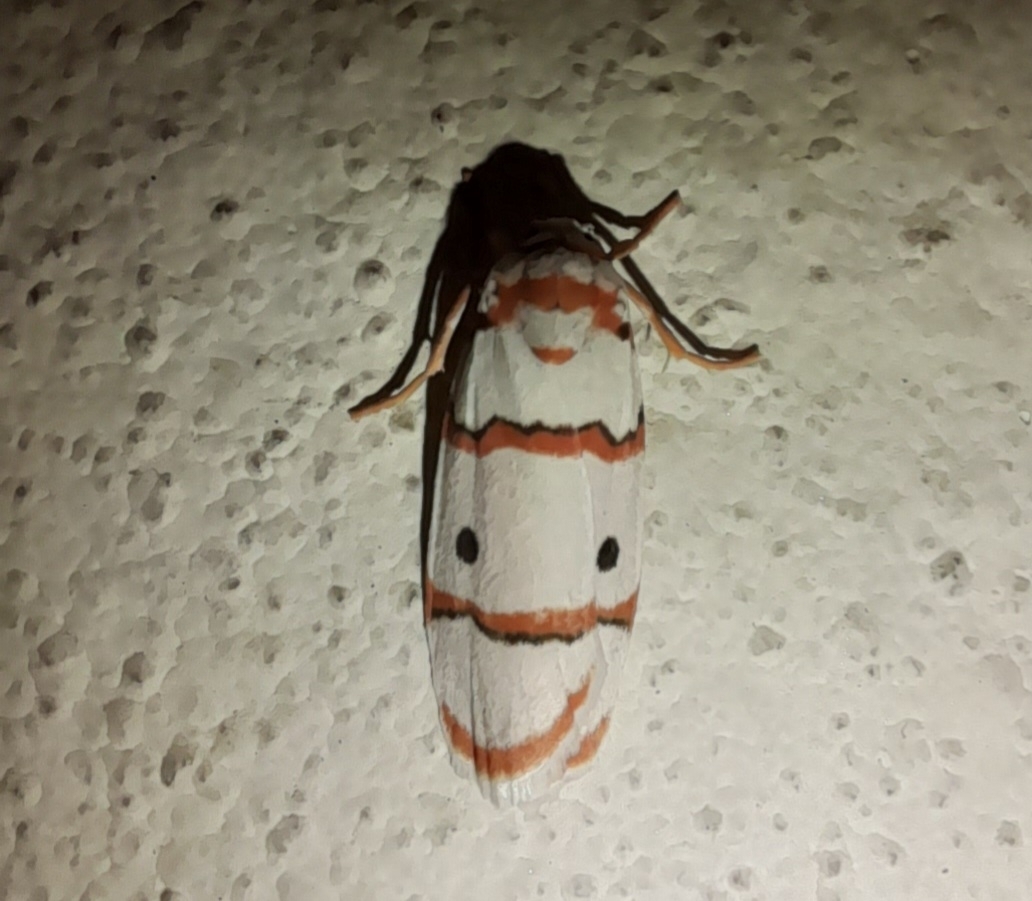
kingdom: Animalia
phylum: Arthropoda
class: Insecta
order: Lepidoptera
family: Erebidae
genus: Cyana
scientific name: Cyana peregrina
